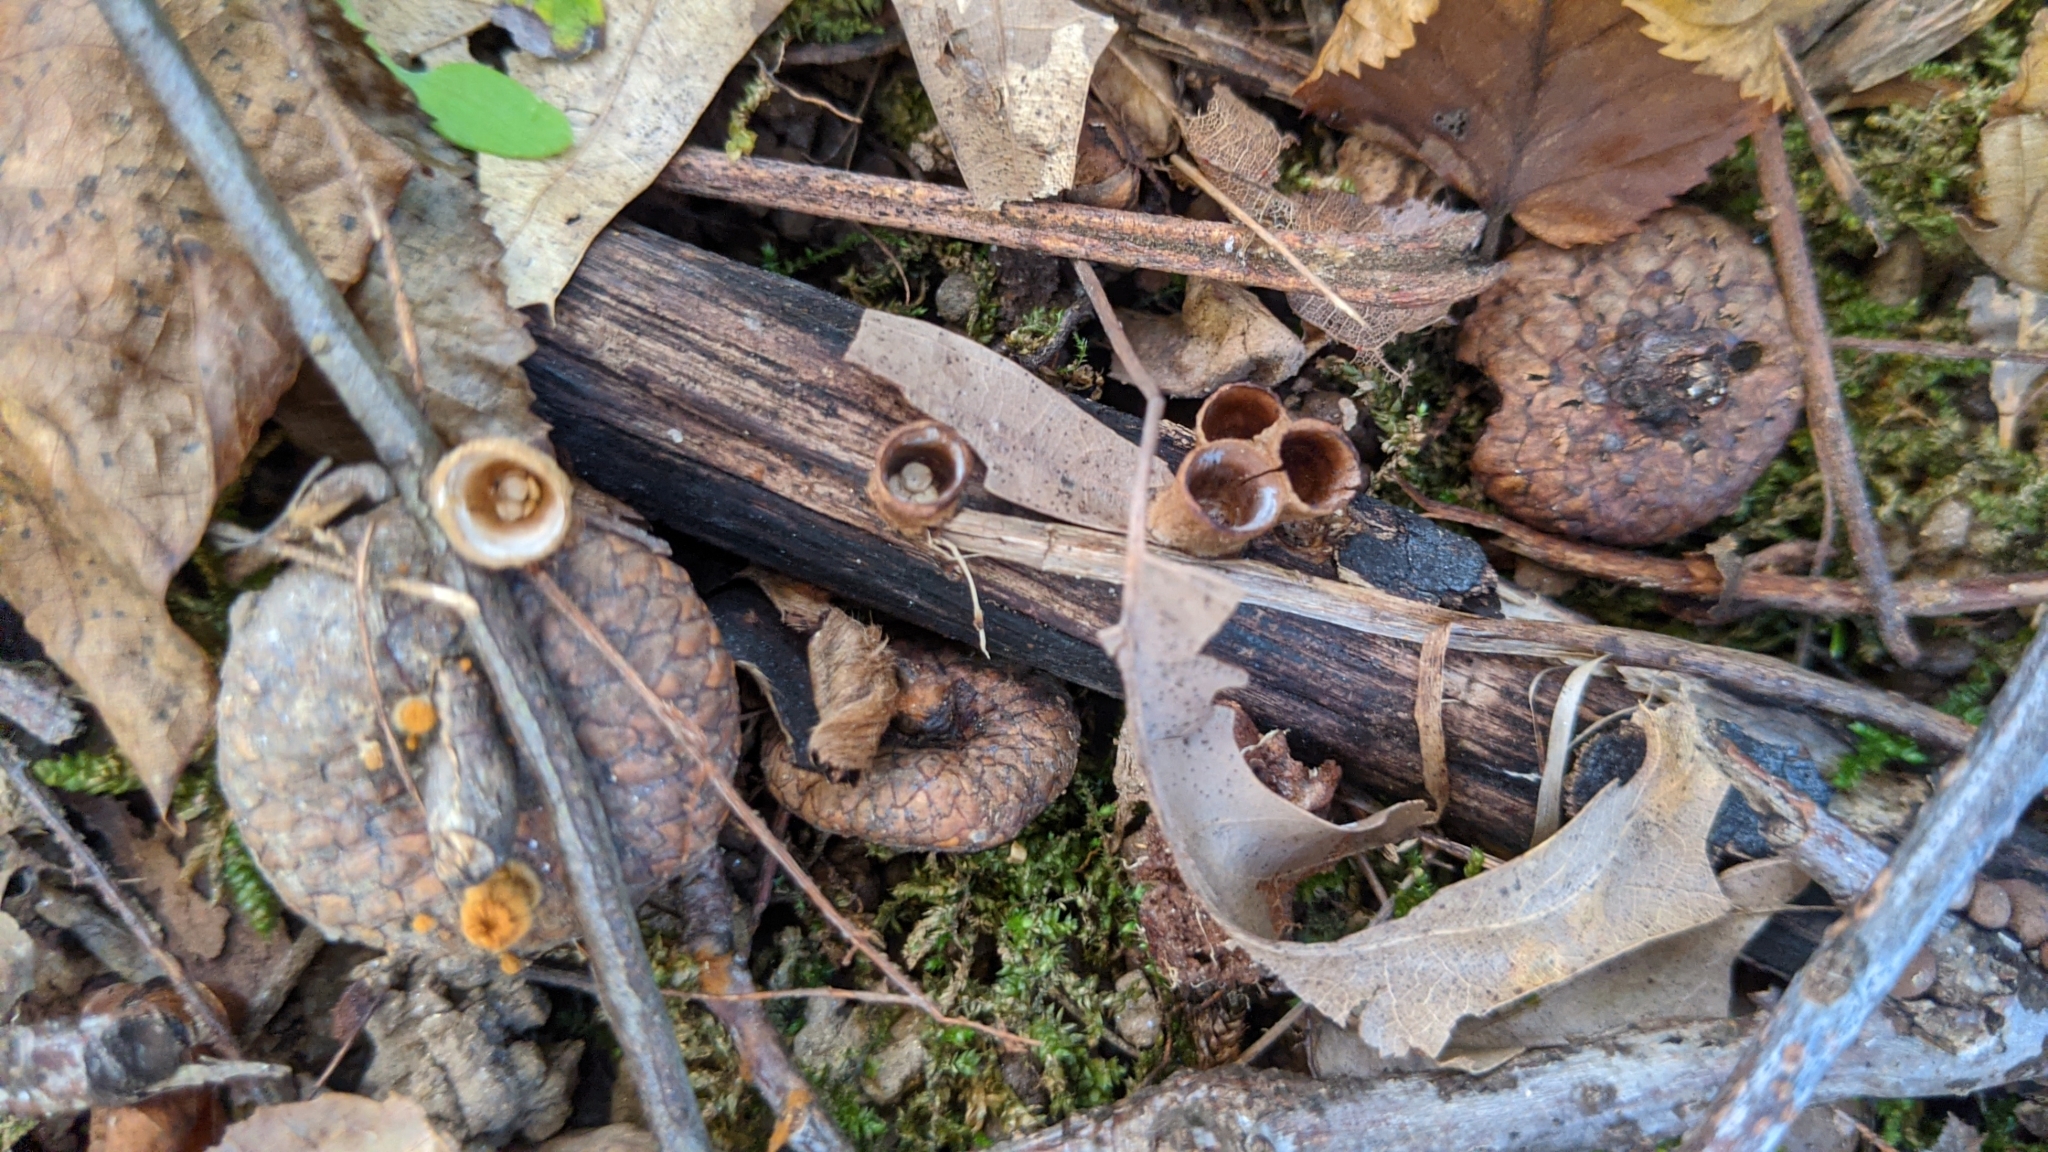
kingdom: Fungi
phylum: Basidiomycota
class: Agaricomycetes
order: Agaricales
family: Nidulariaceae
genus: Crucibulum
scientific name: Crucibulum laeve
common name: Common bird's nest
